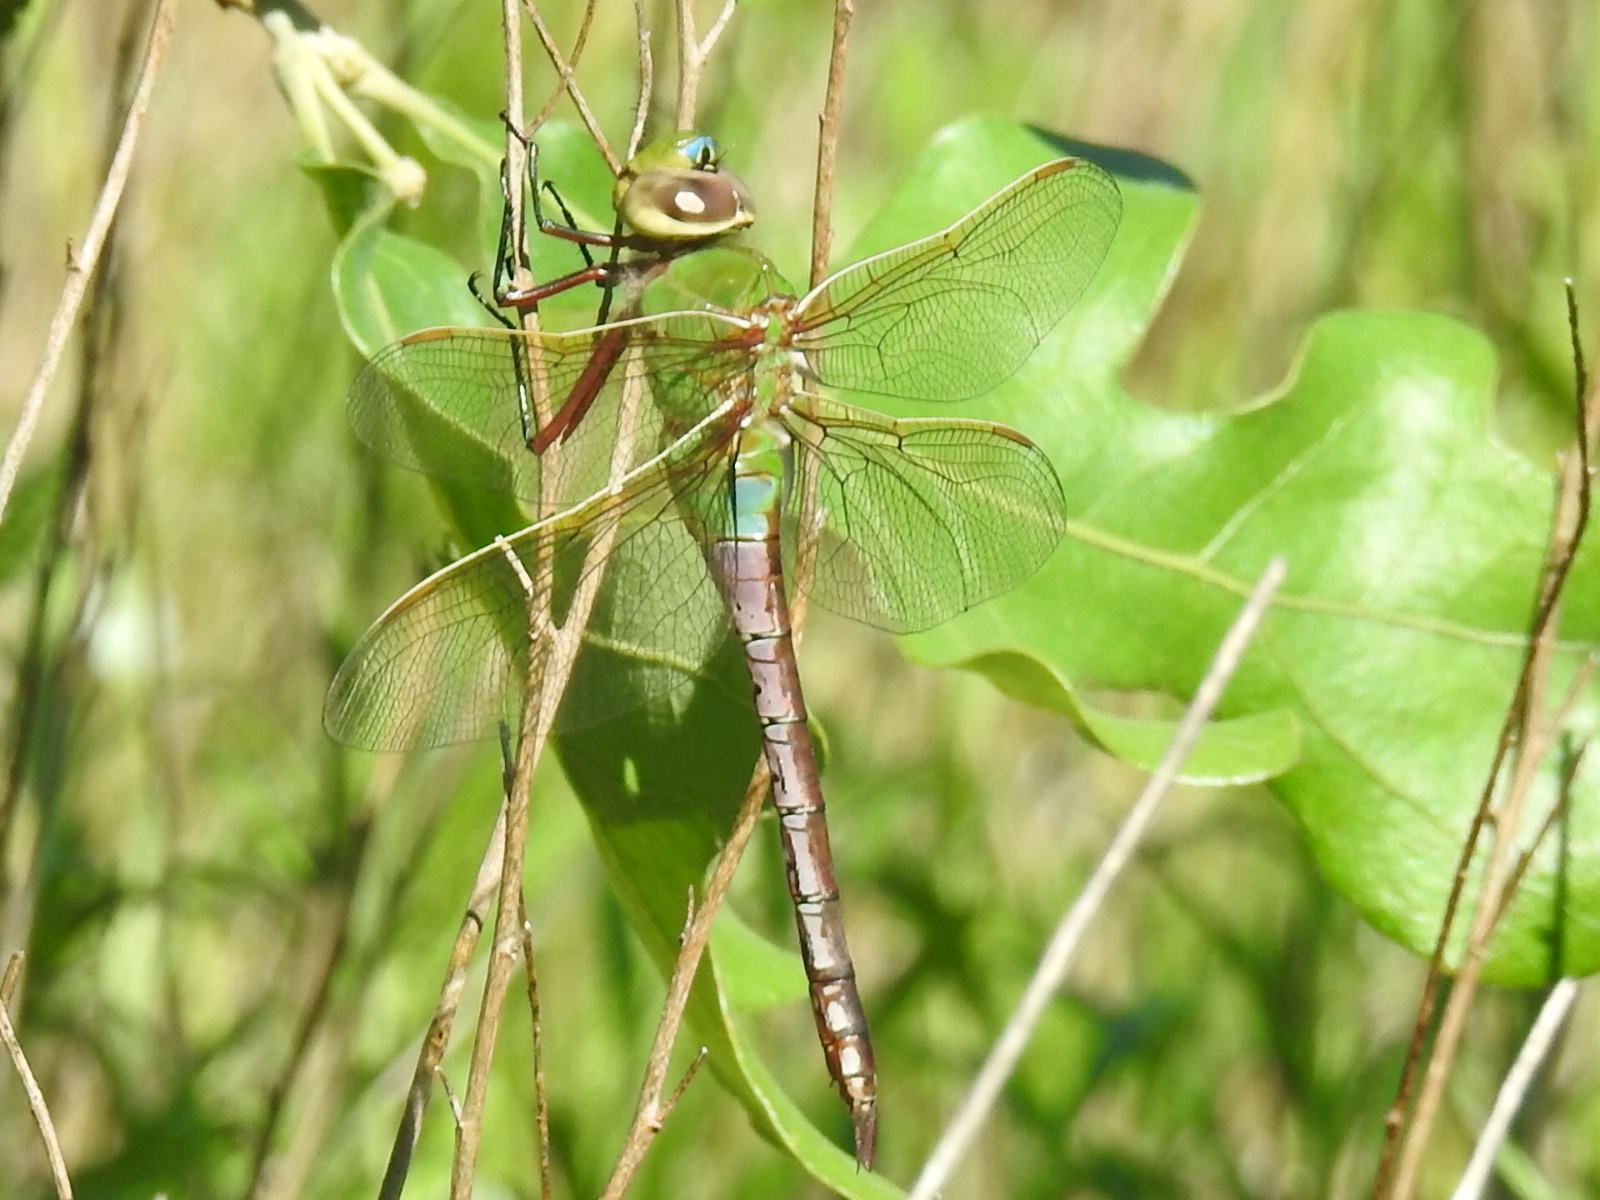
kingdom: Animalia
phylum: Arthropoda
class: Insecta
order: Odonata
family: Aeshnidae
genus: Anax
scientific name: Anax junius
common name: Common green darner
